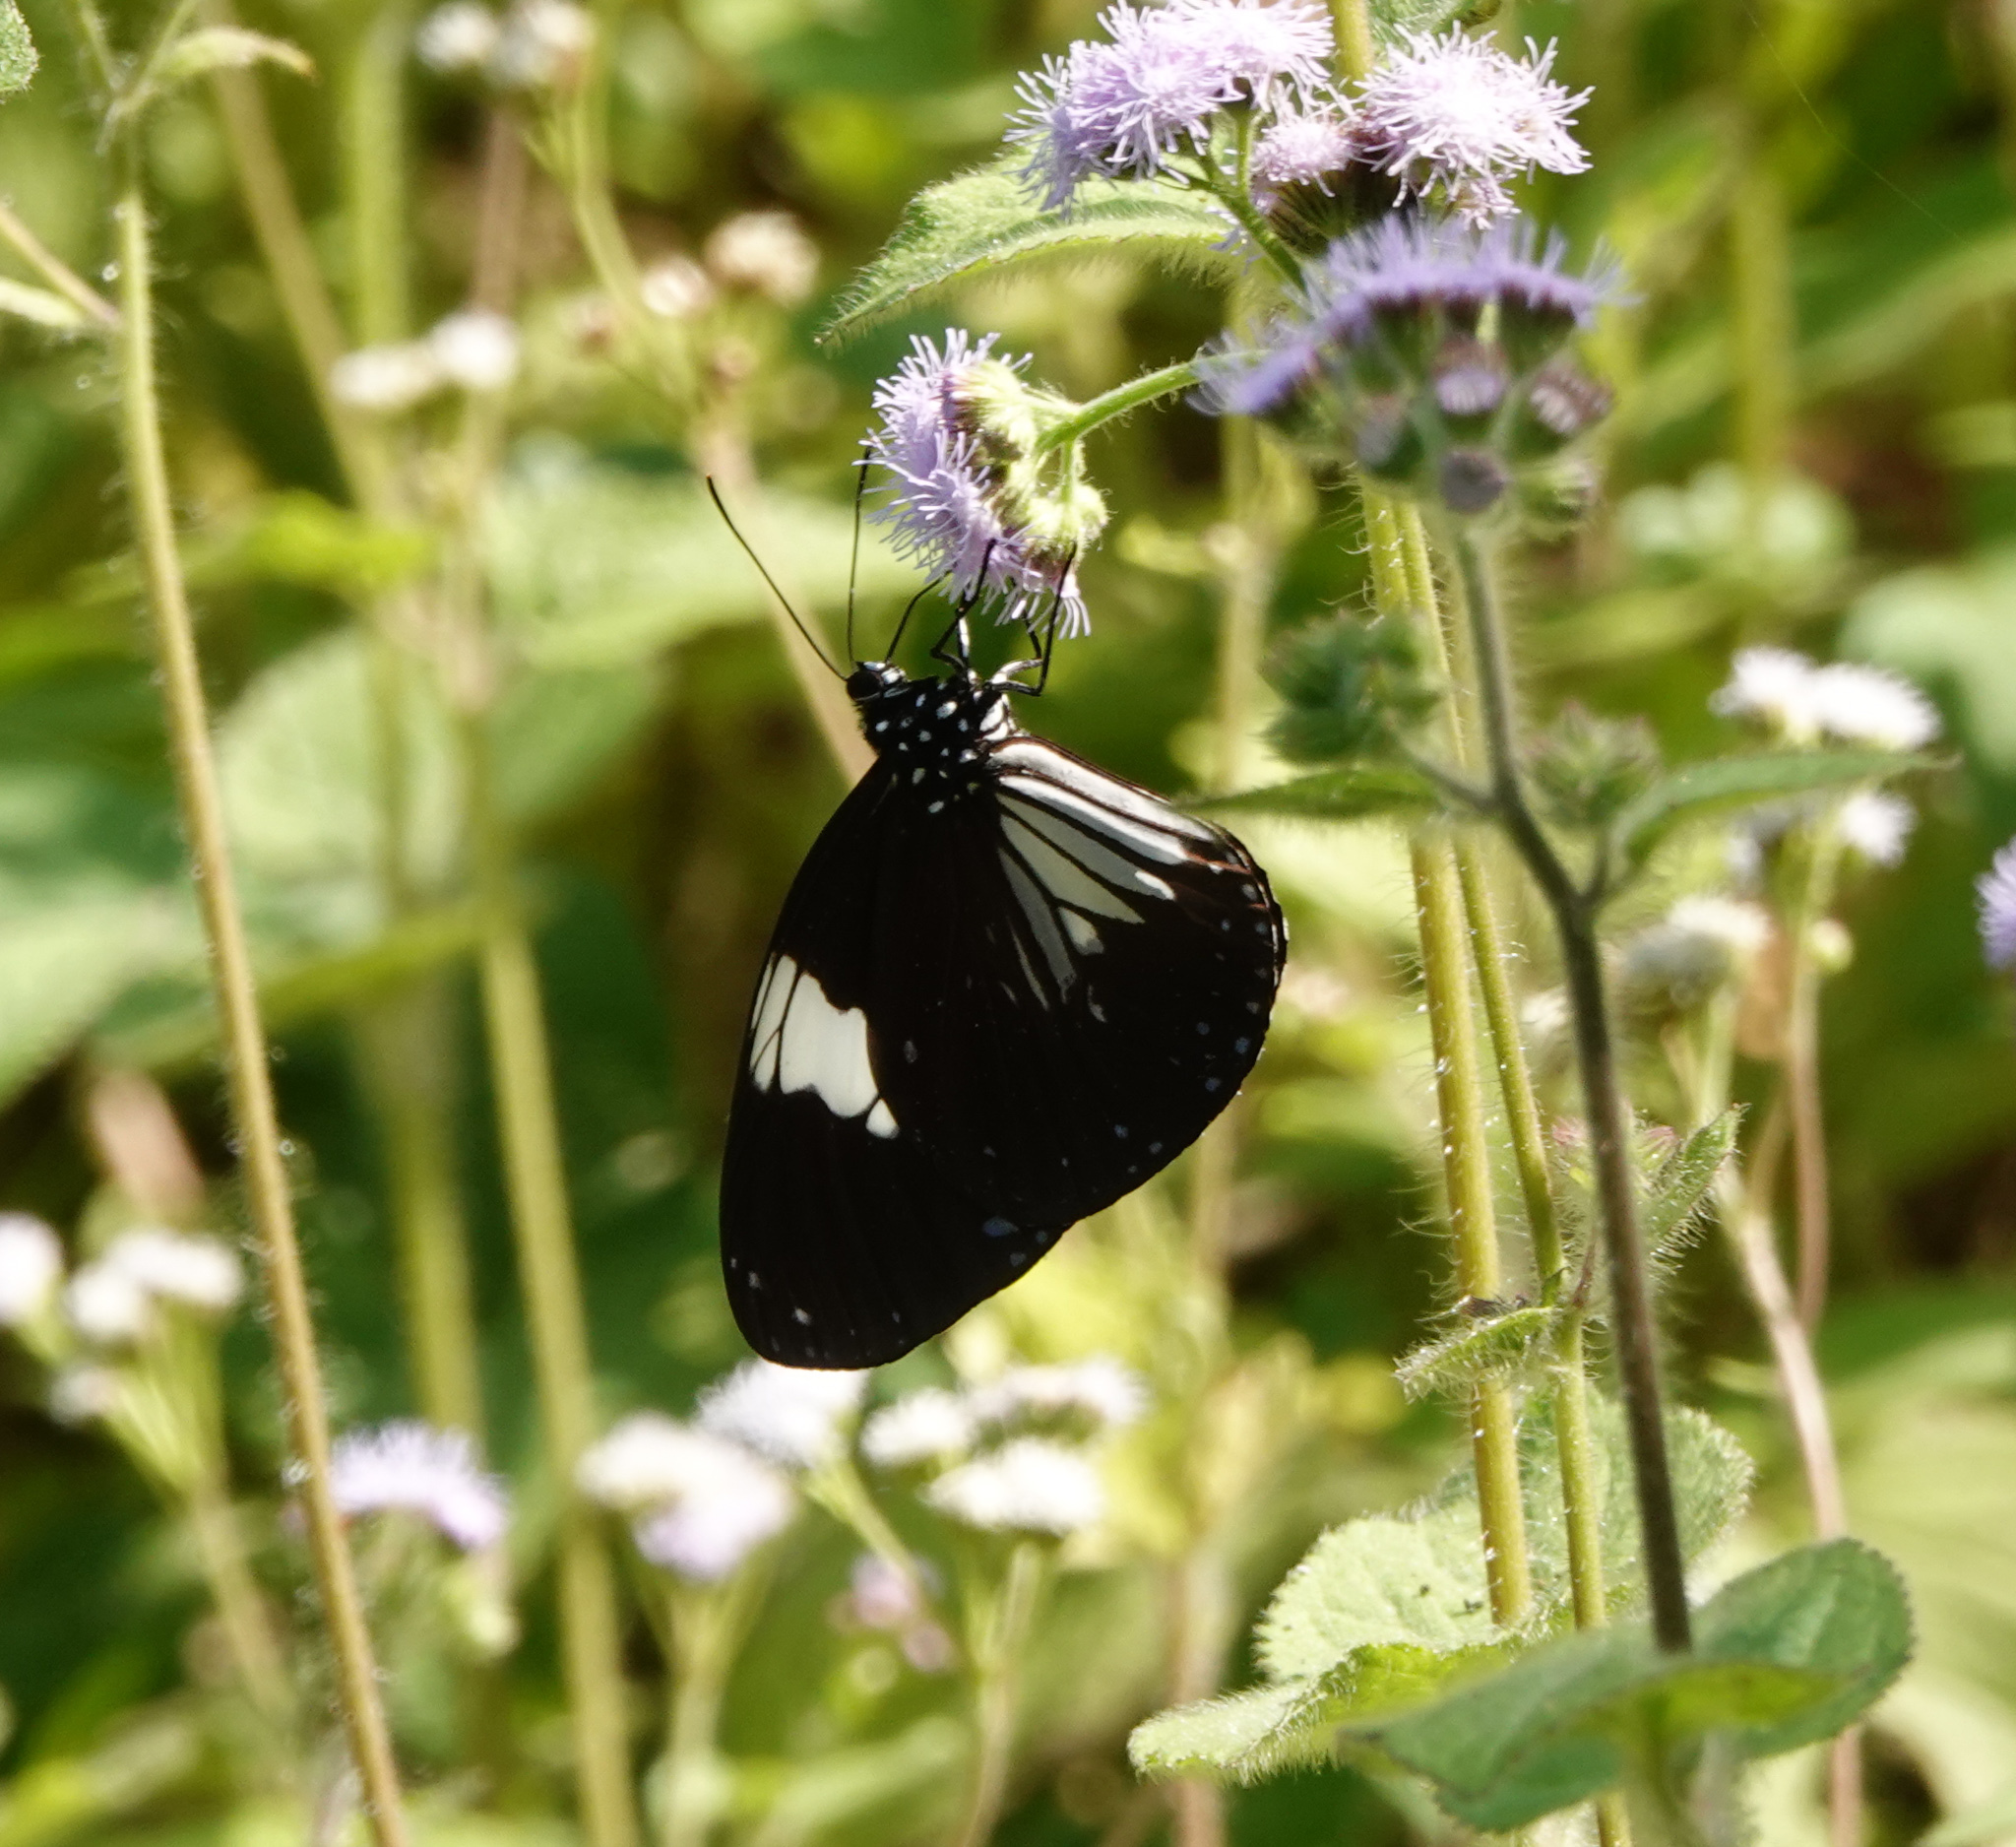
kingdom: Animalia
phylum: Arthropoda
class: Insecta
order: Lepidoptera
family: Nymphalidae
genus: Euploea
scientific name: Euploea radamanthus
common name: Magpie crow butterfly
